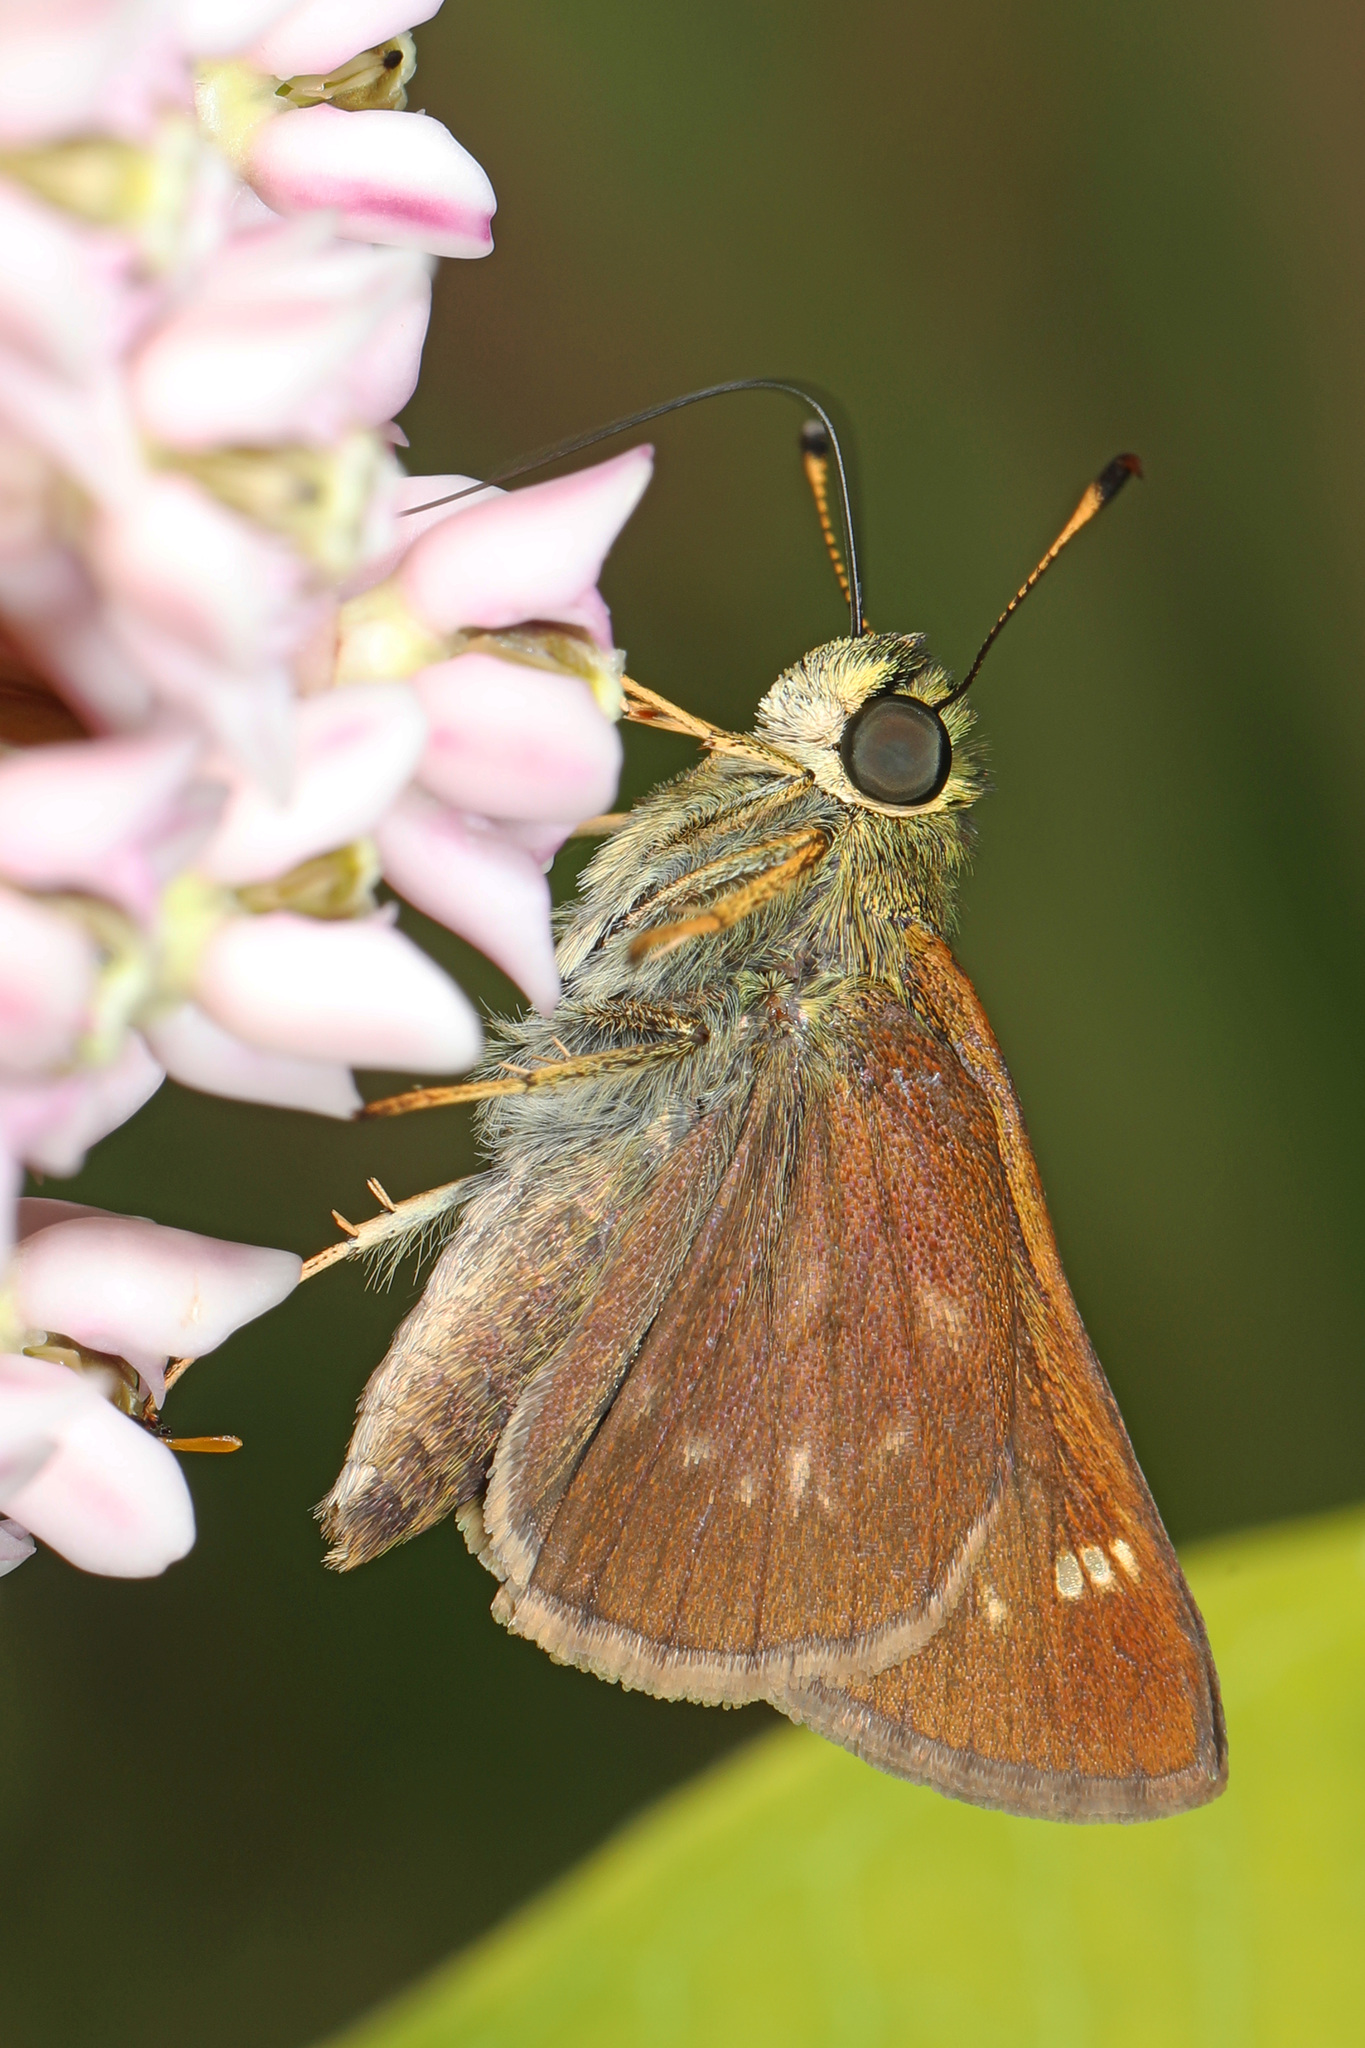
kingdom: Animalia
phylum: Arthropoda
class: Insecta
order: Lepidoptera
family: Hesperiidae
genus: Vernia
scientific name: Vernia verna
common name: Little glassywing
